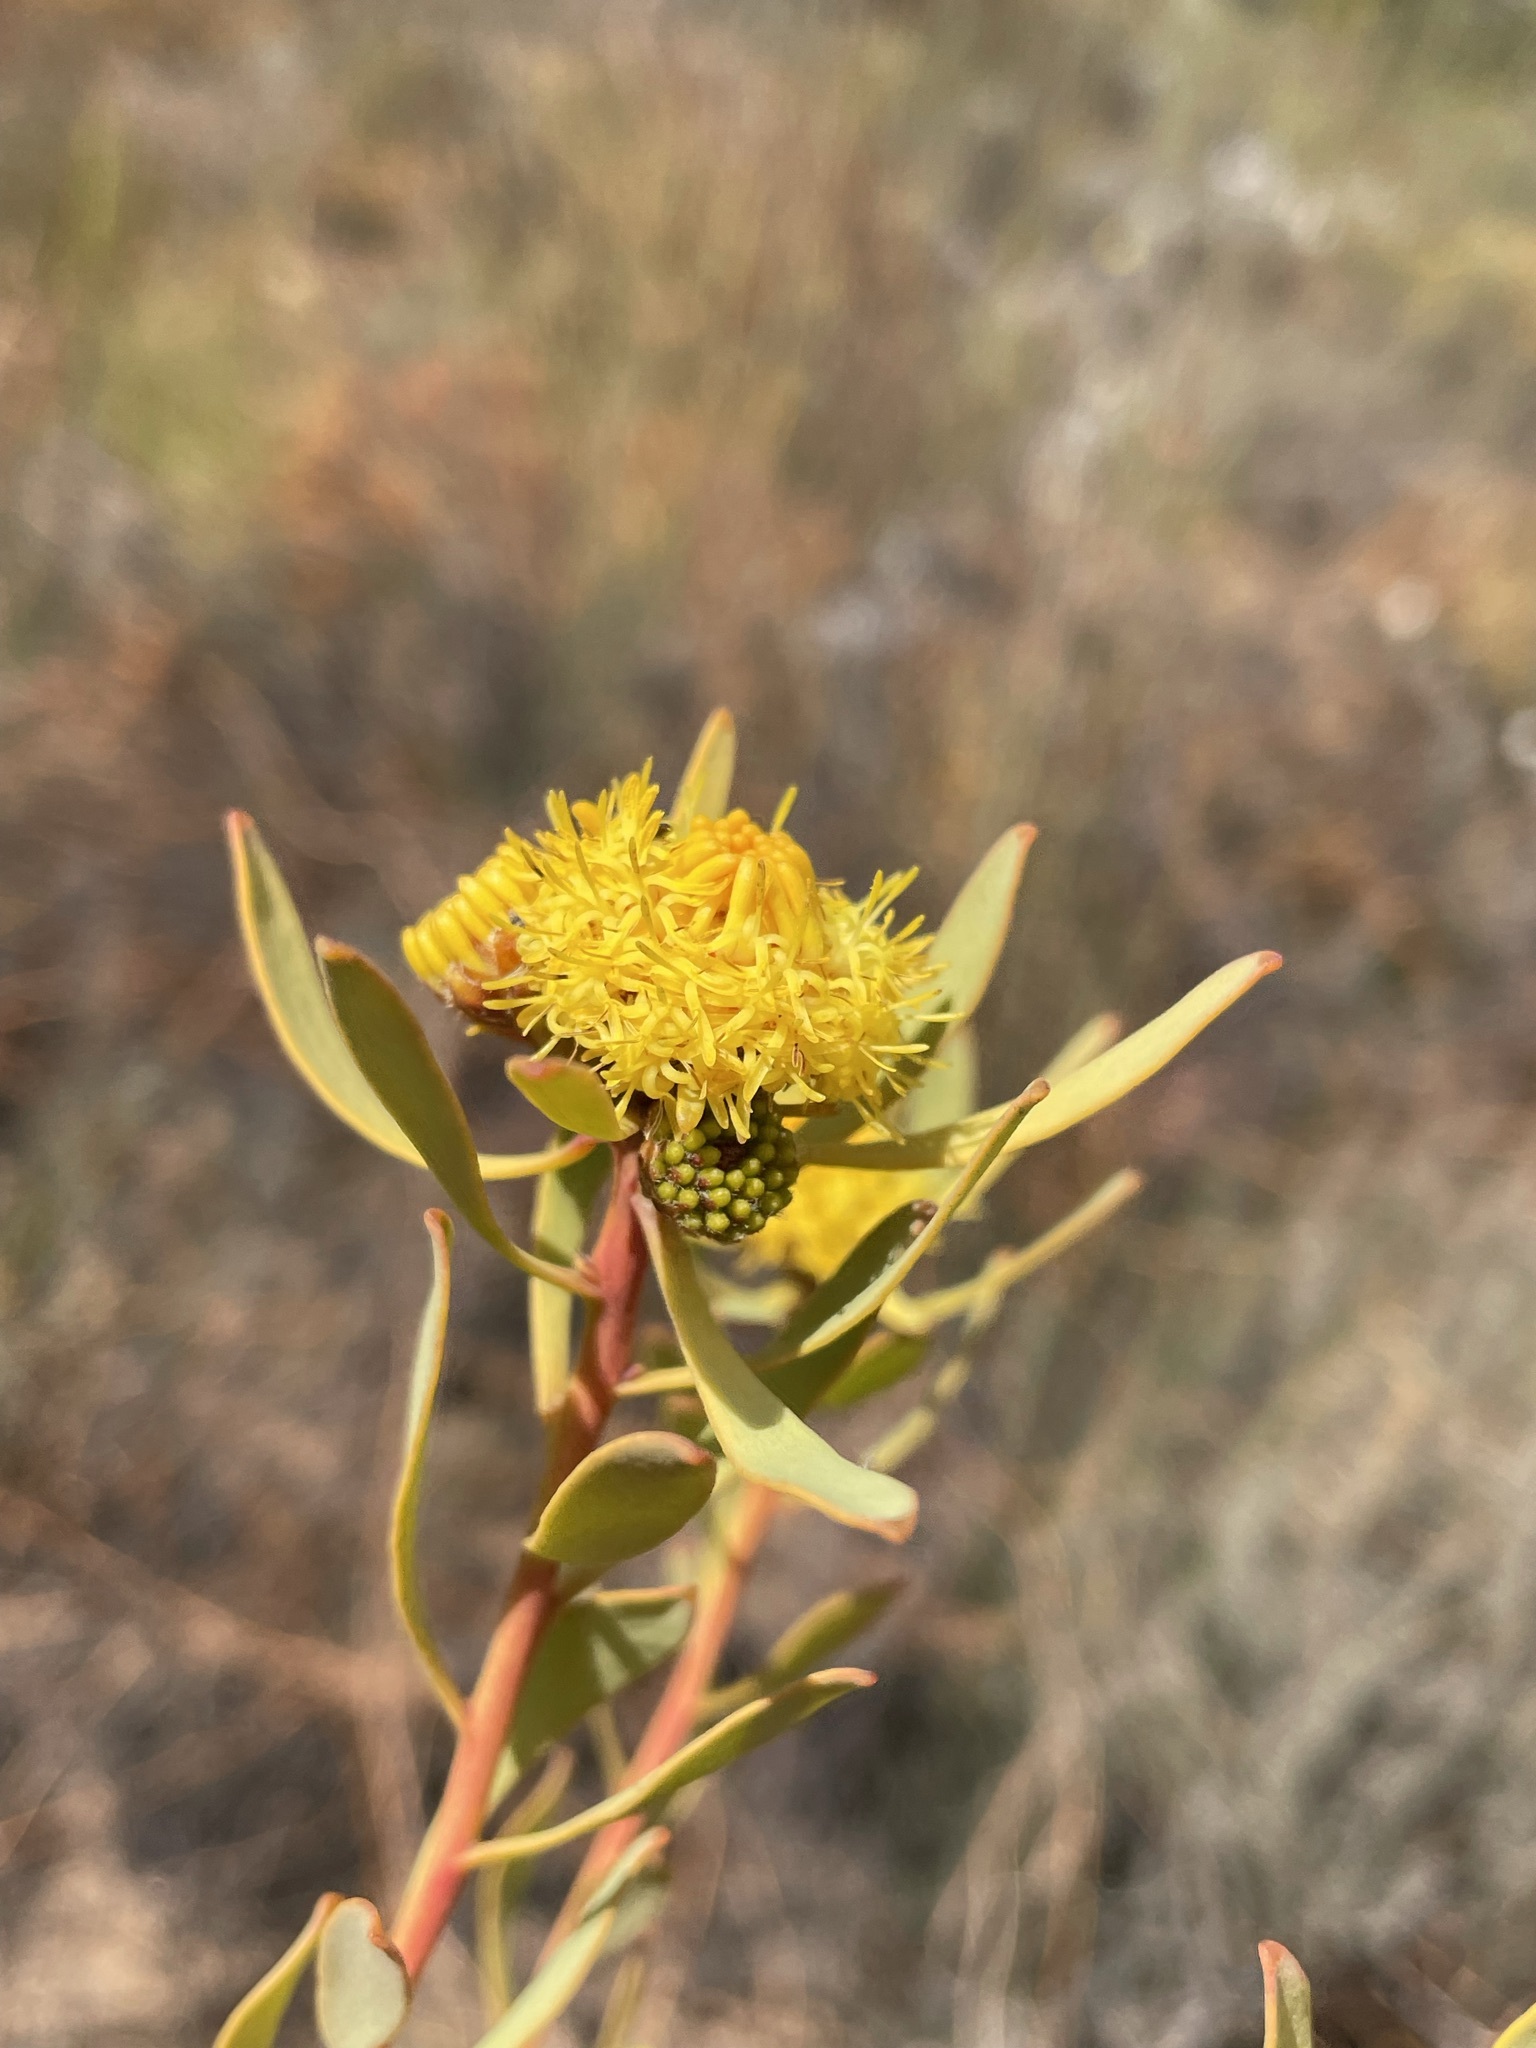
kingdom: Plantae
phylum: Tracheophyta
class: Magnoliopsida
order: Proteales
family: Proteaceae
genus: Leucadendron
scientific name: Leucadendron nitidum
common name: Bokkeveld conebush
